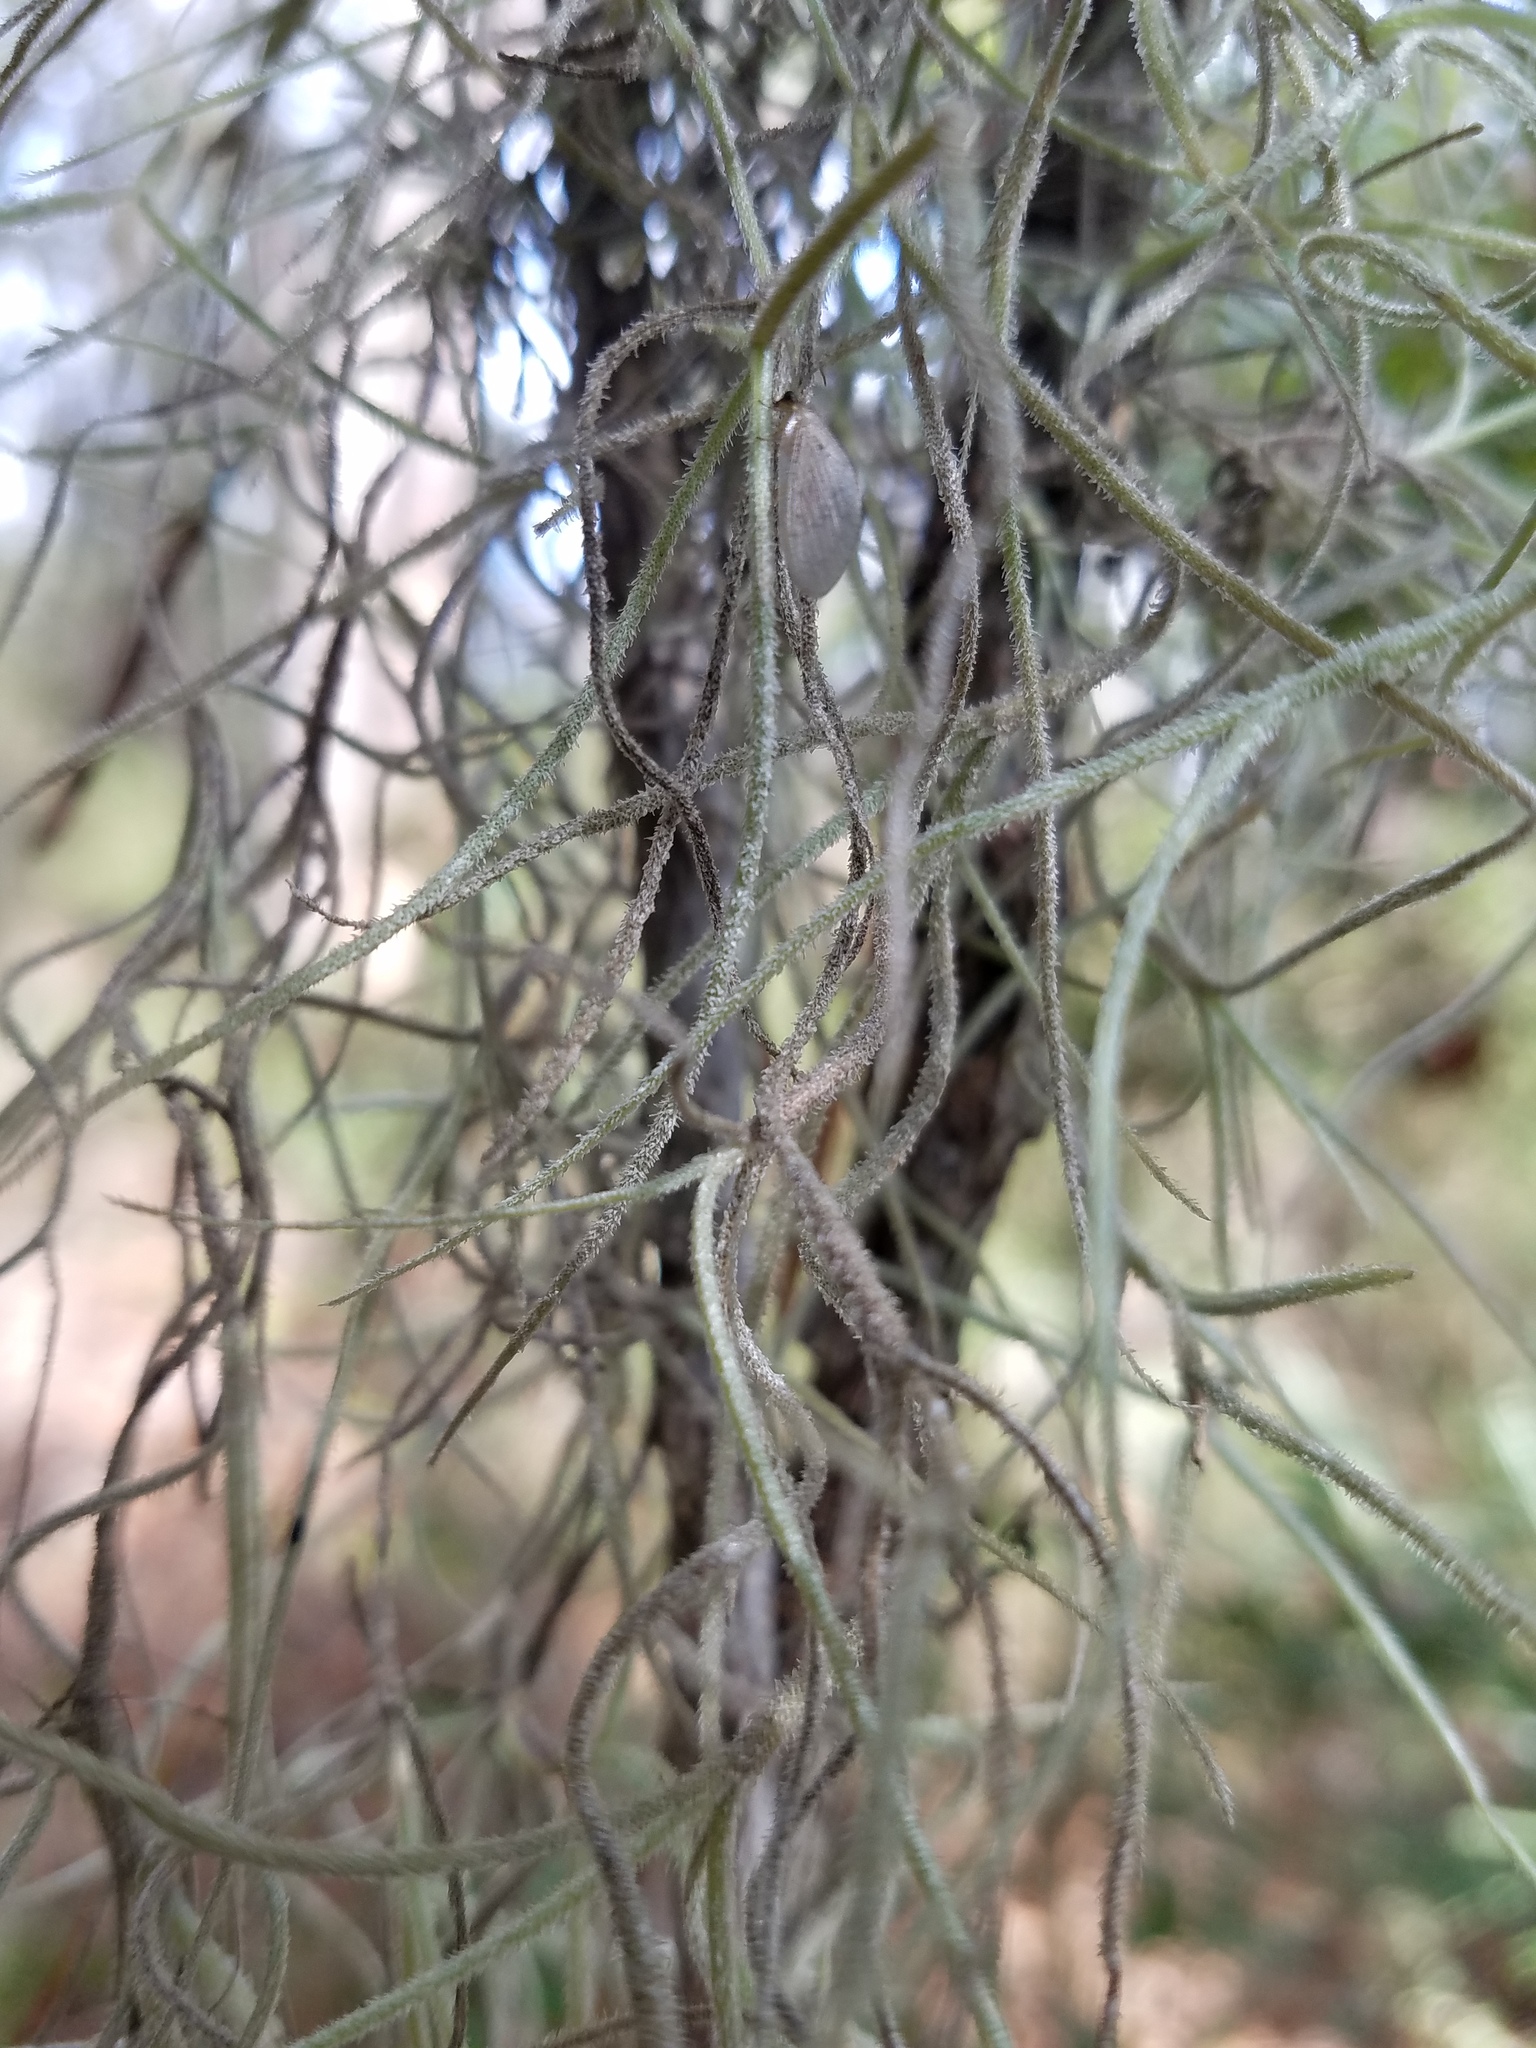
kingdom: Plantae
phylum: Tracheophyta
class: Liliopsida
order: Poales
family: Bromeliaceae
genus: Tillandsia
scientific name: Tillandsia usneoides
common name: Spanish moss
